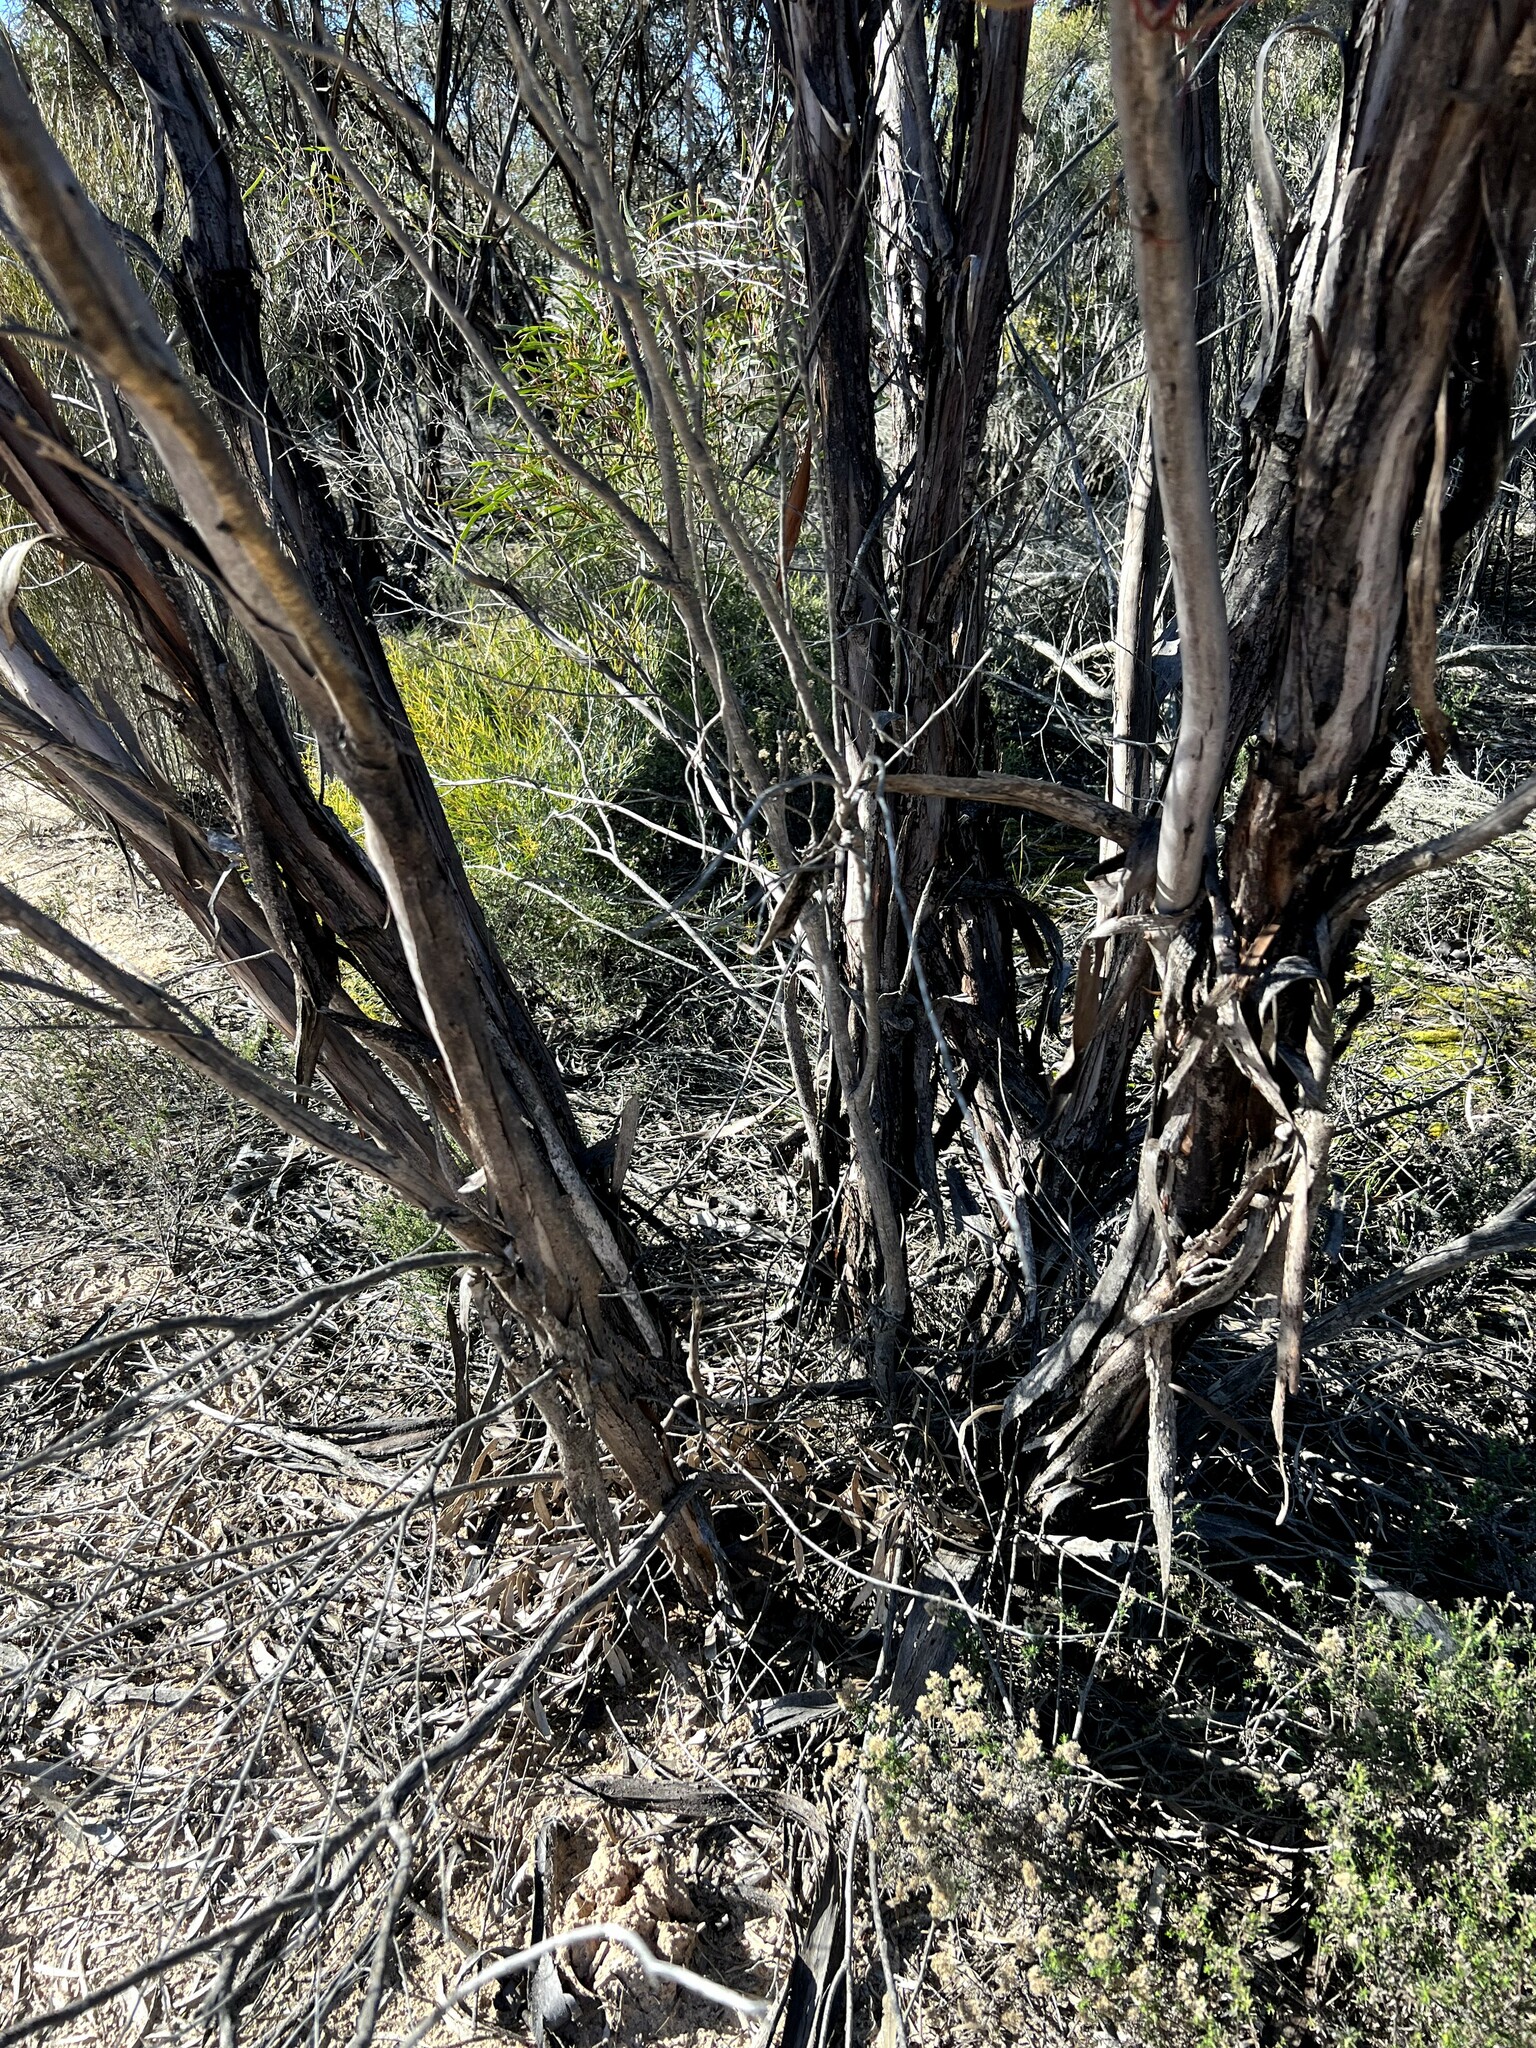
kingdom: Plantae
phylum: Tracheophyta
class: Magnoliopsida
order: Myrtales
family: Myrtaceae
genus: Eucalyptus
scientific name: Eucalyptus viridis
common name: Green mallee
